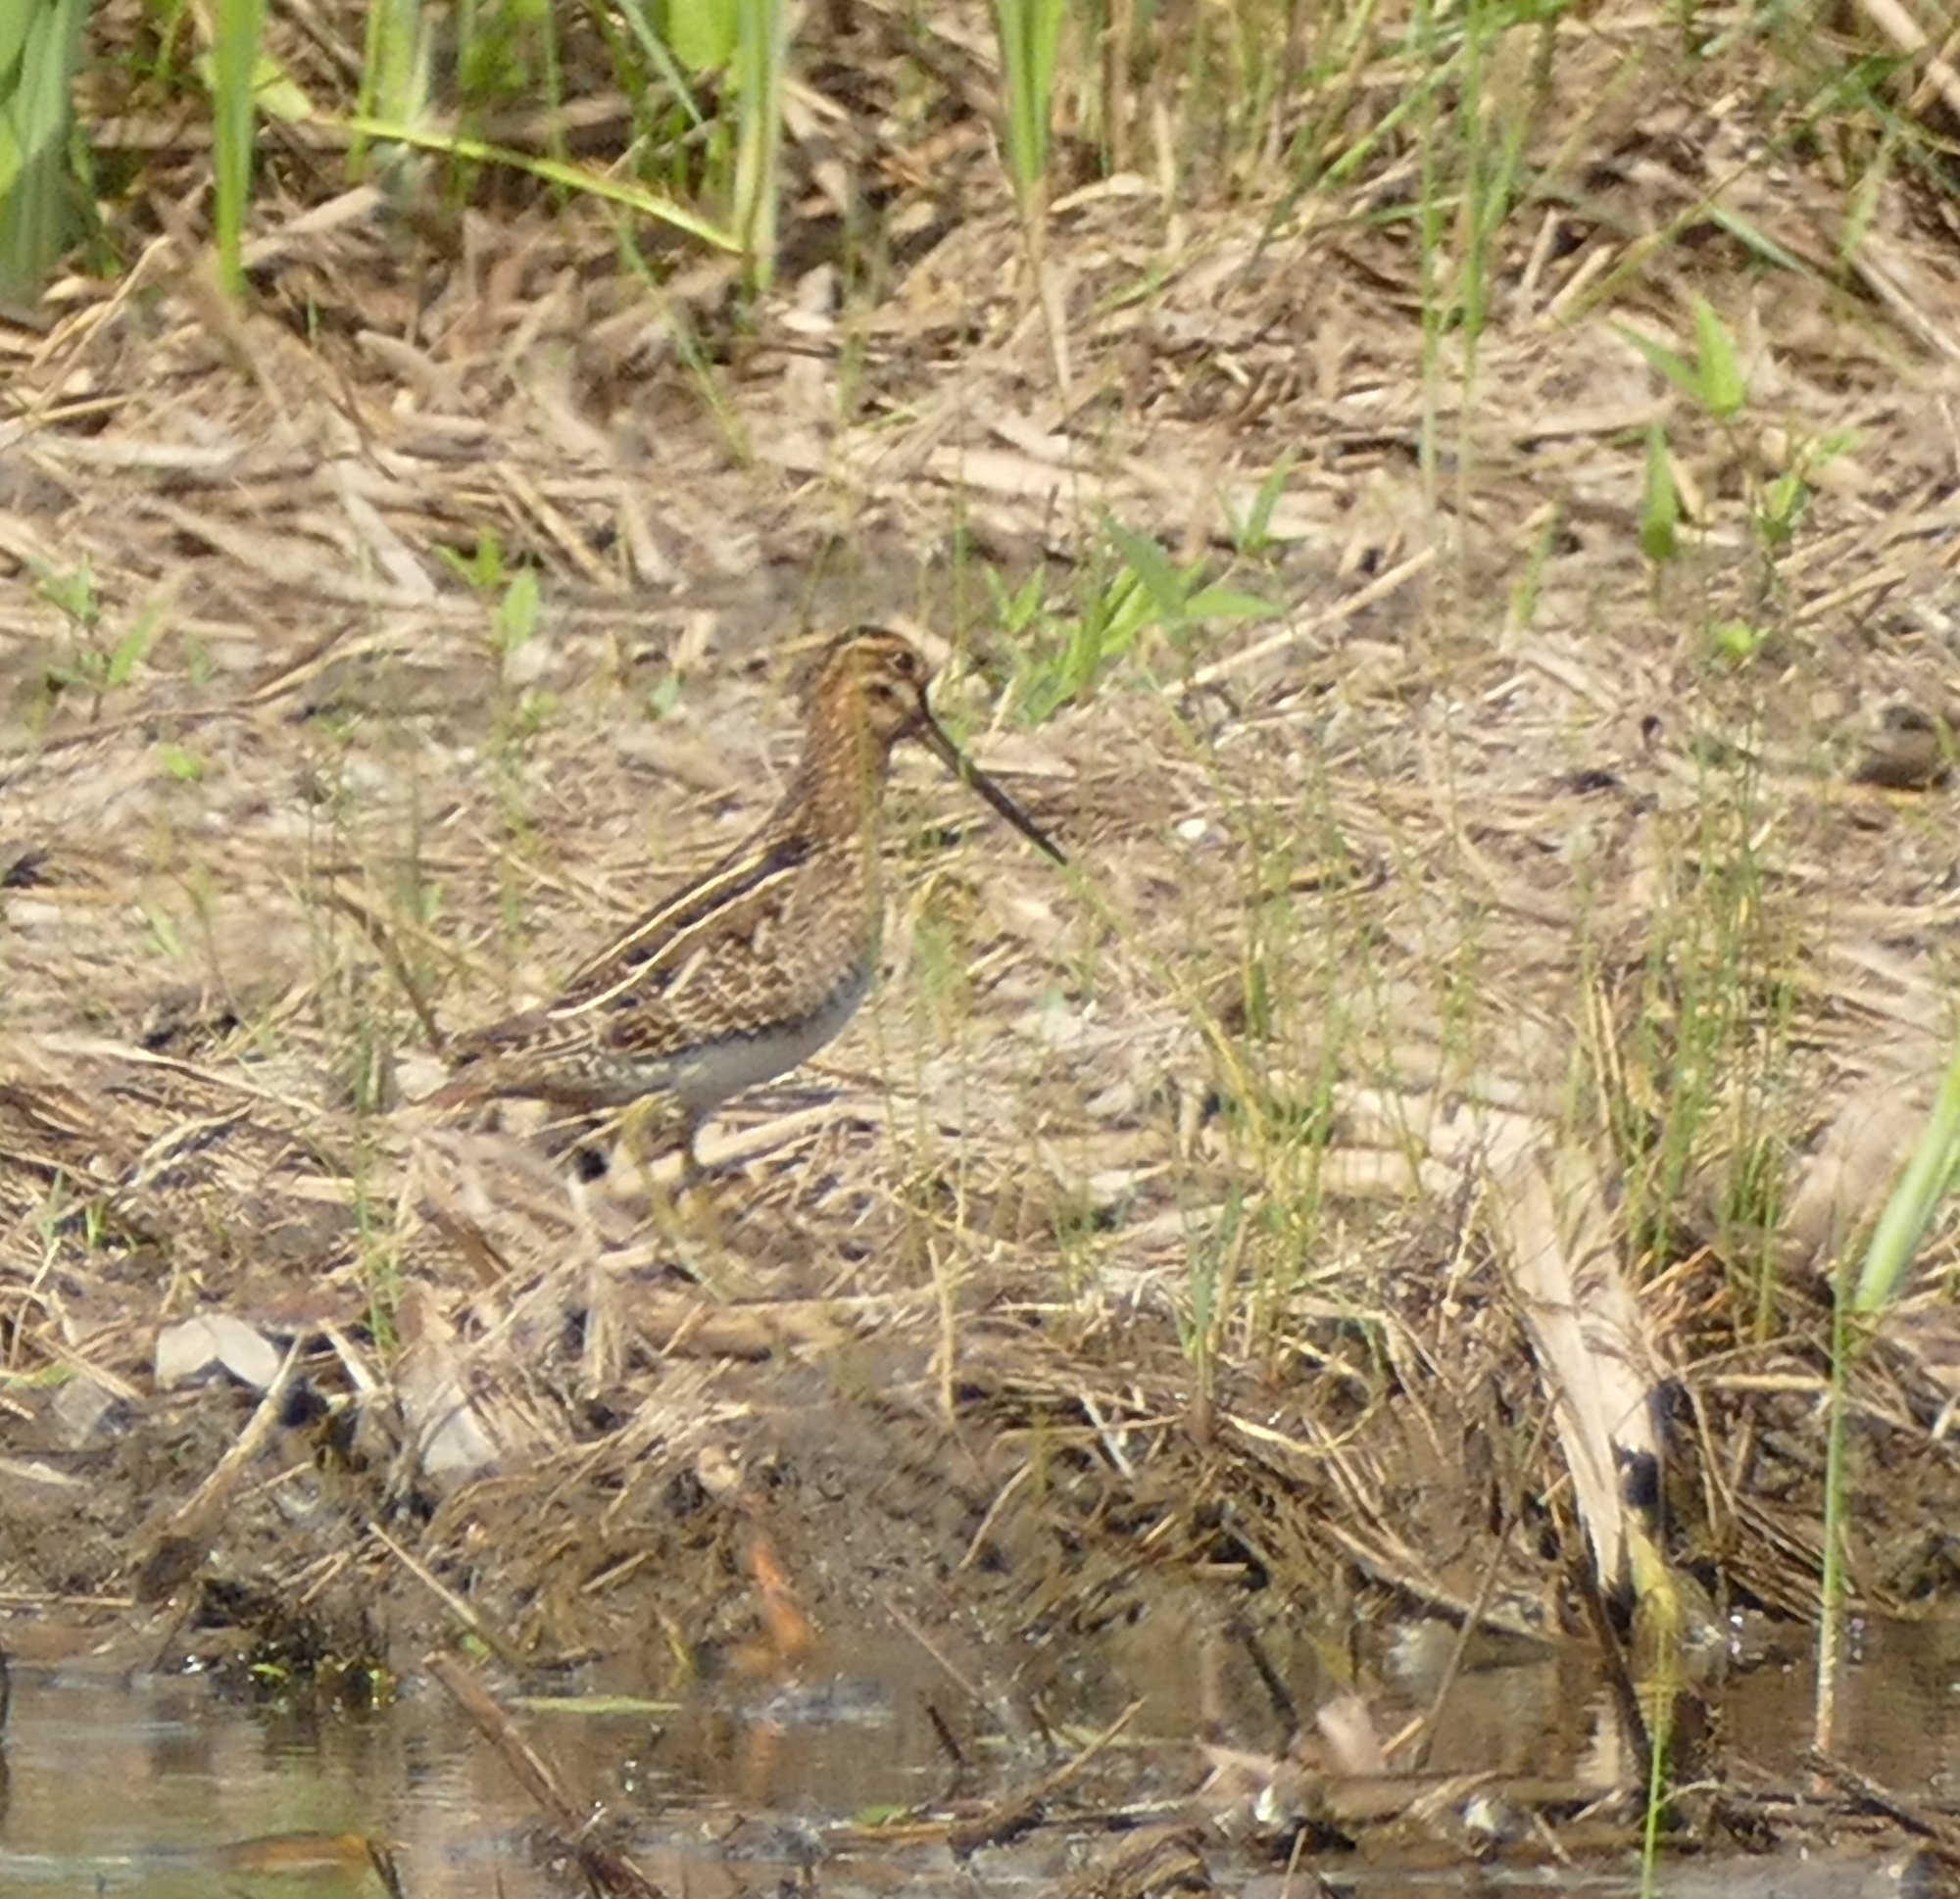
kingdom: Animalia
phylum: Chordata
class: Aves
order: Charadriiformes
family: Scolopacidae
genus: Gallinago
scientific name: Gallinago delicata
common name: Wilson's snipe
